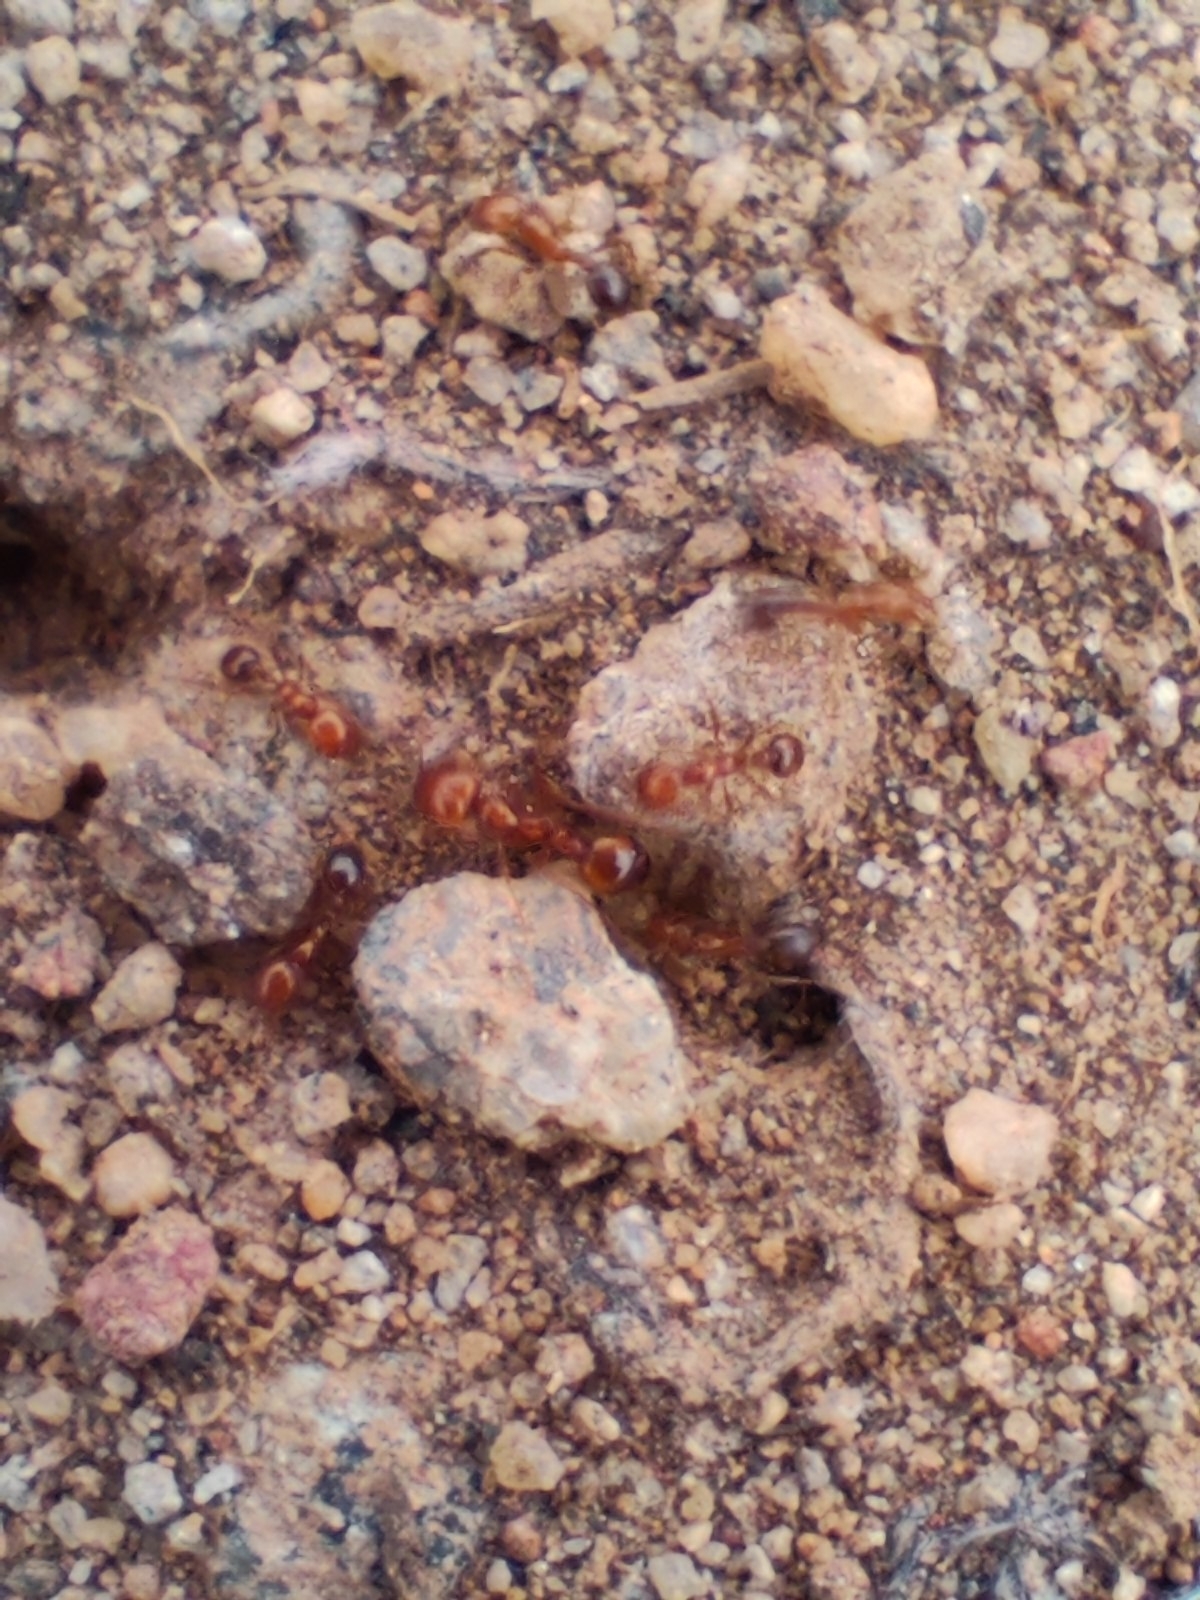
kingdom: Animalia
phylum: Arthropoda
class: Insecta
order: Hymenoptera
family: Formicidae
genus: Solenopsis
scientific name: Solenopsis geminata
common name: Tropical fire ant
